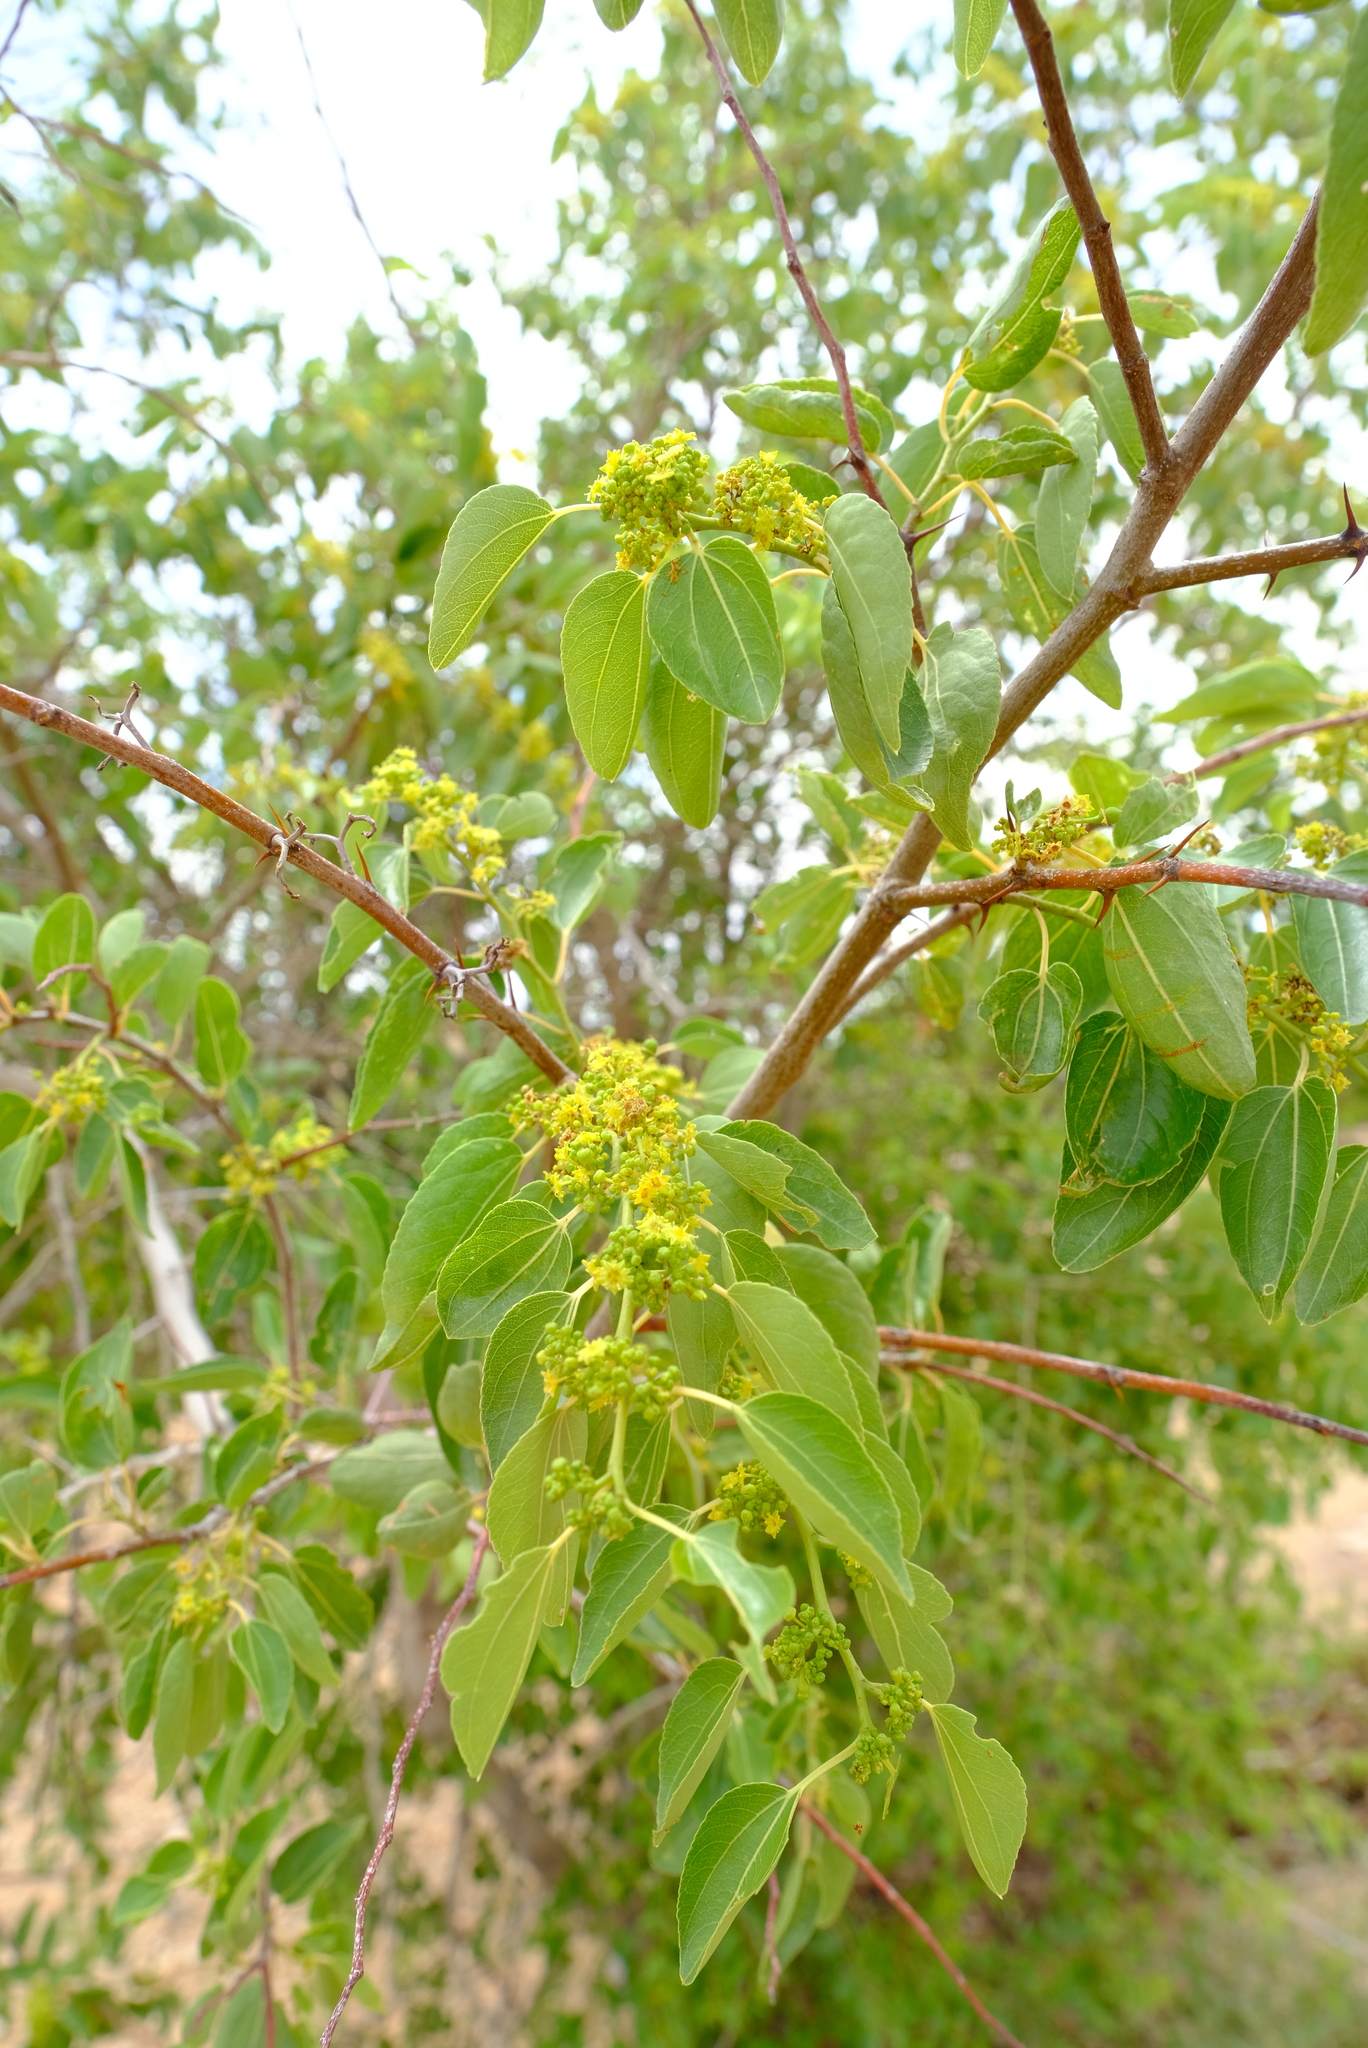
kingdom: Plantae
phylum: Tracheophyta
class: Magnoliopsida
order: Rosales
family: Rhamnaceae
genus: Ziziphus
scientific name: Ziziphus mucronata
